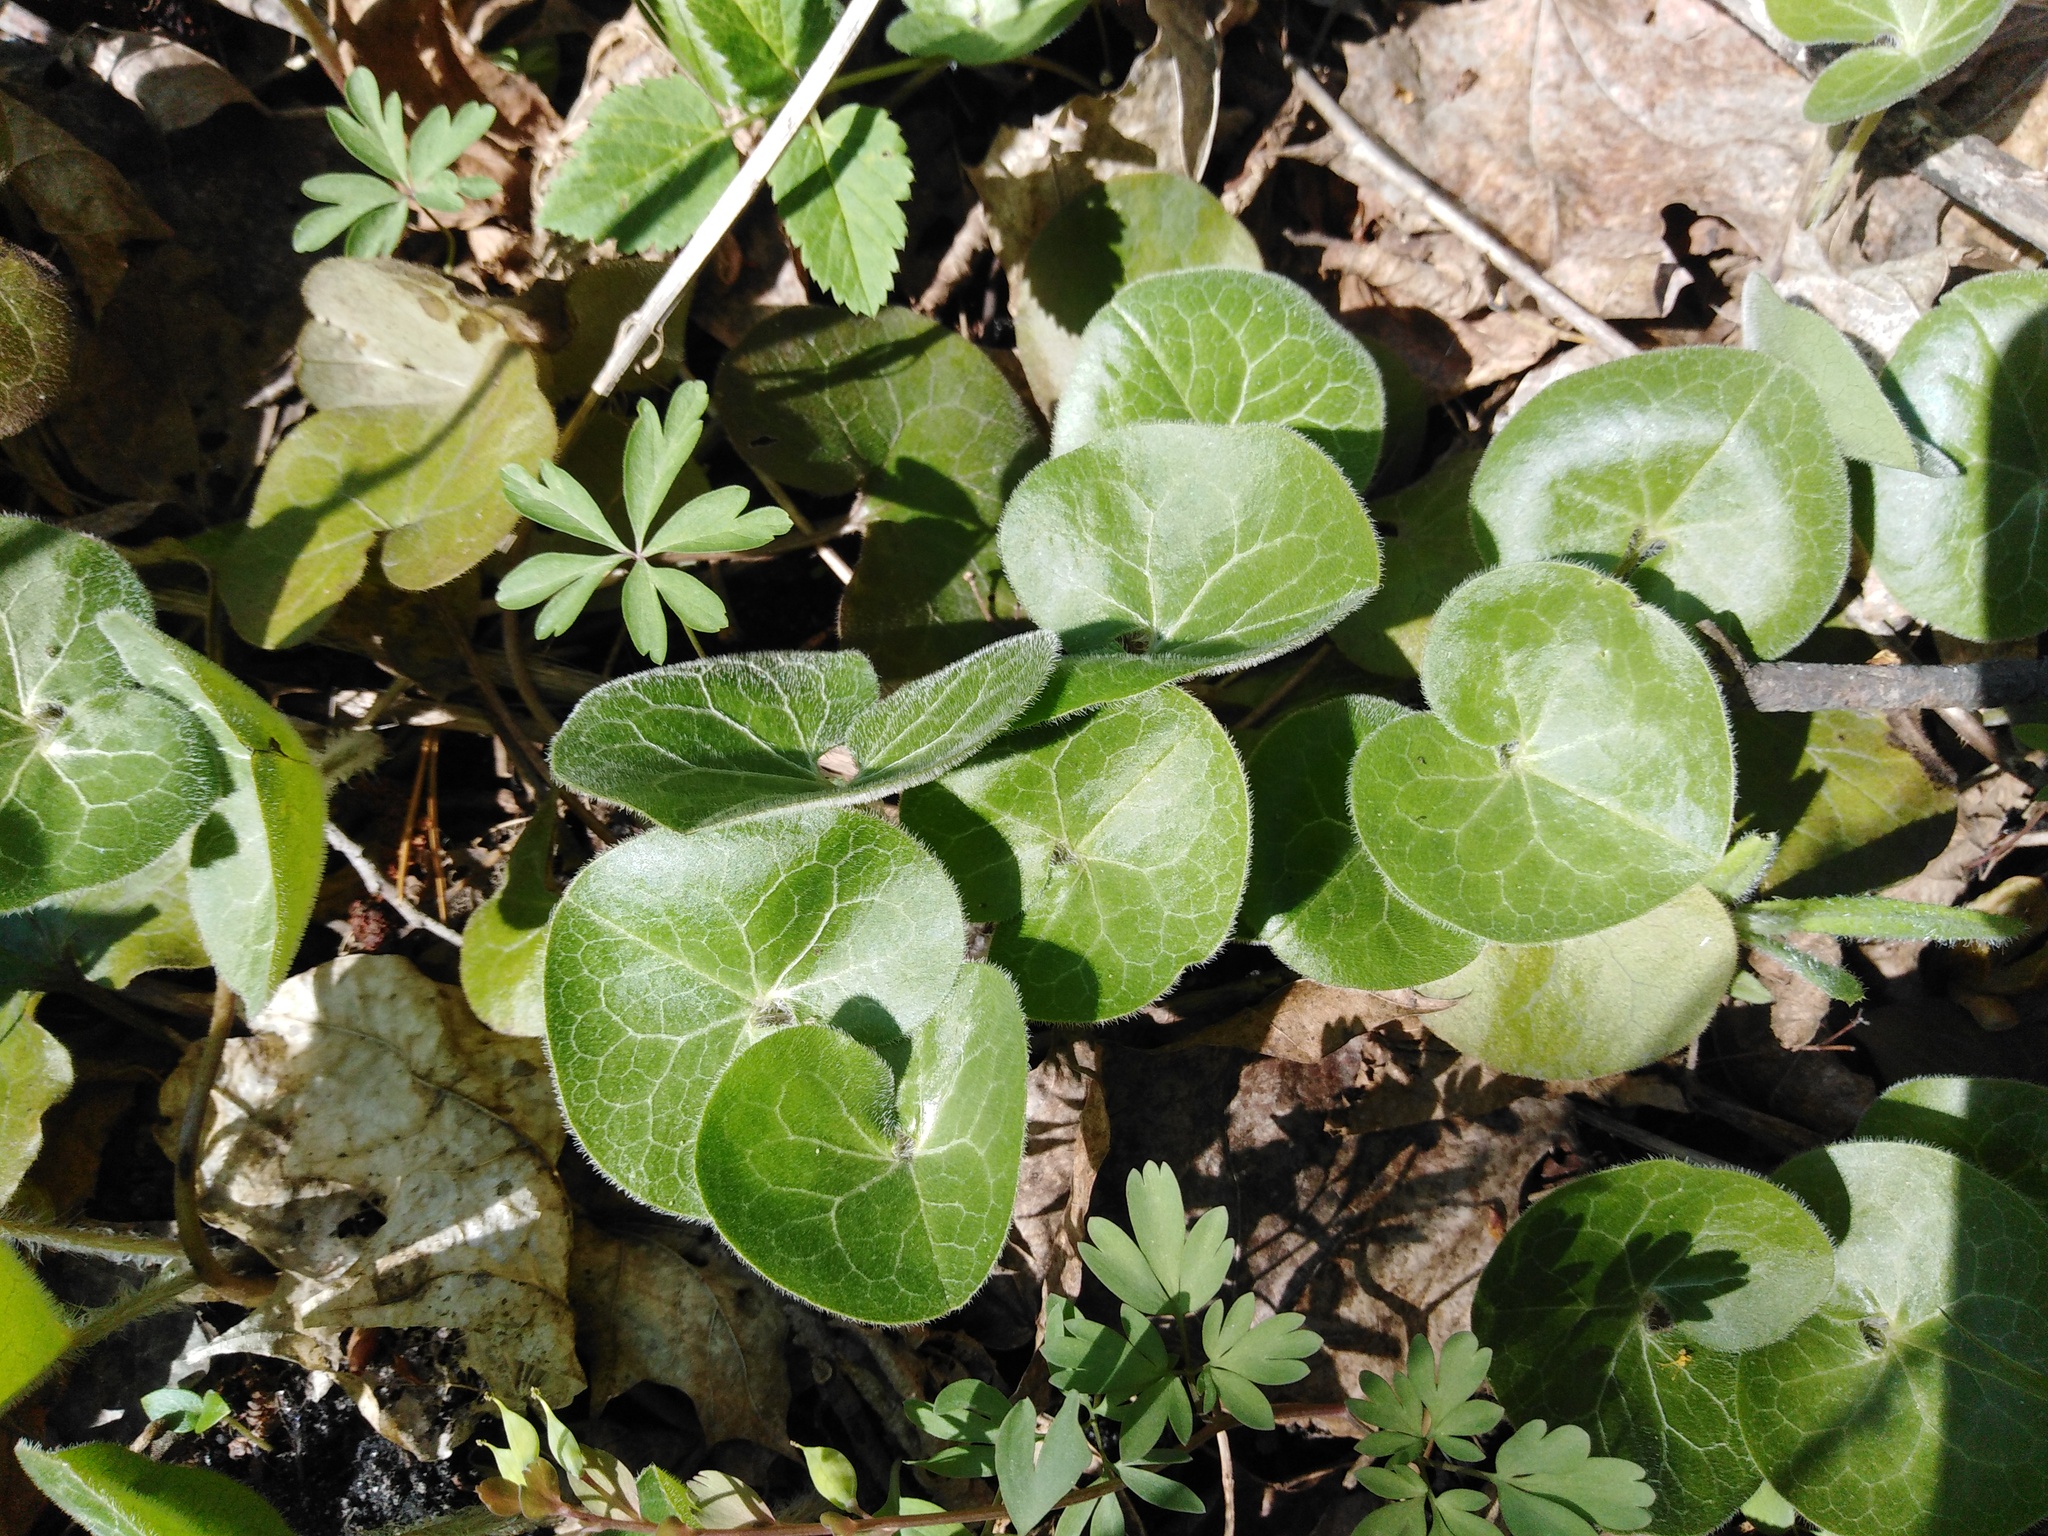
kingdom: Plantae
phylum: Tracheophyta
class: Magnoliopsida
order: Piperales
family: Aristolochiaceae
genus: Asarum
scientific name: Asarum europaeum
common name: Asarabacca
